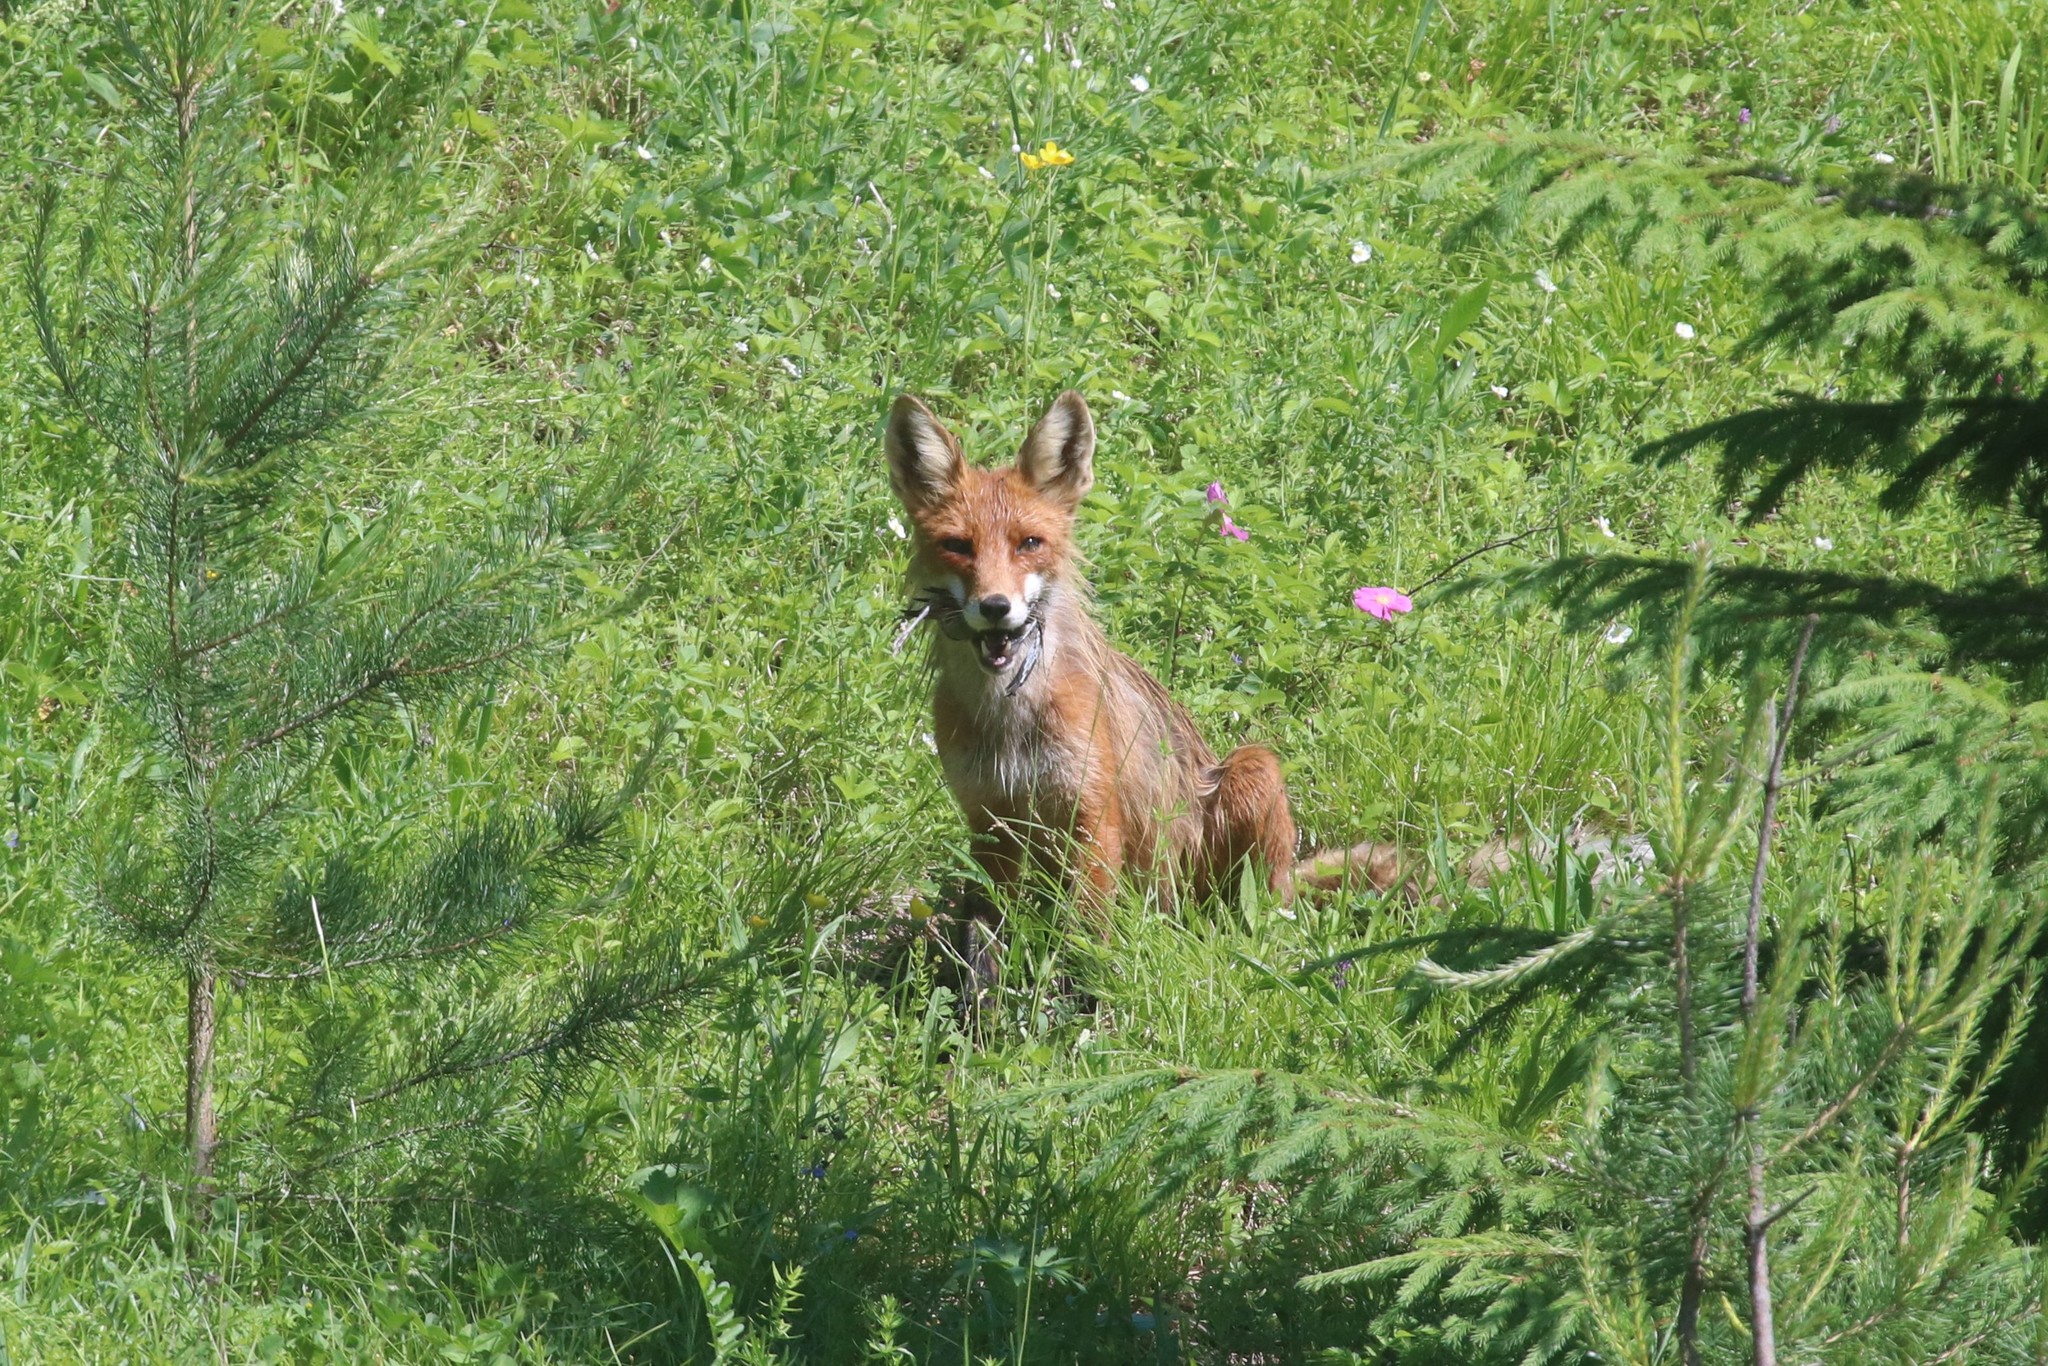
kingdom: Animalia
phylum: Chordata
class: Mammalia
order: Carnivora
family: Canidae
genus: Vulpes
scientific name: Vulpes vulpes
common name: Red fox
